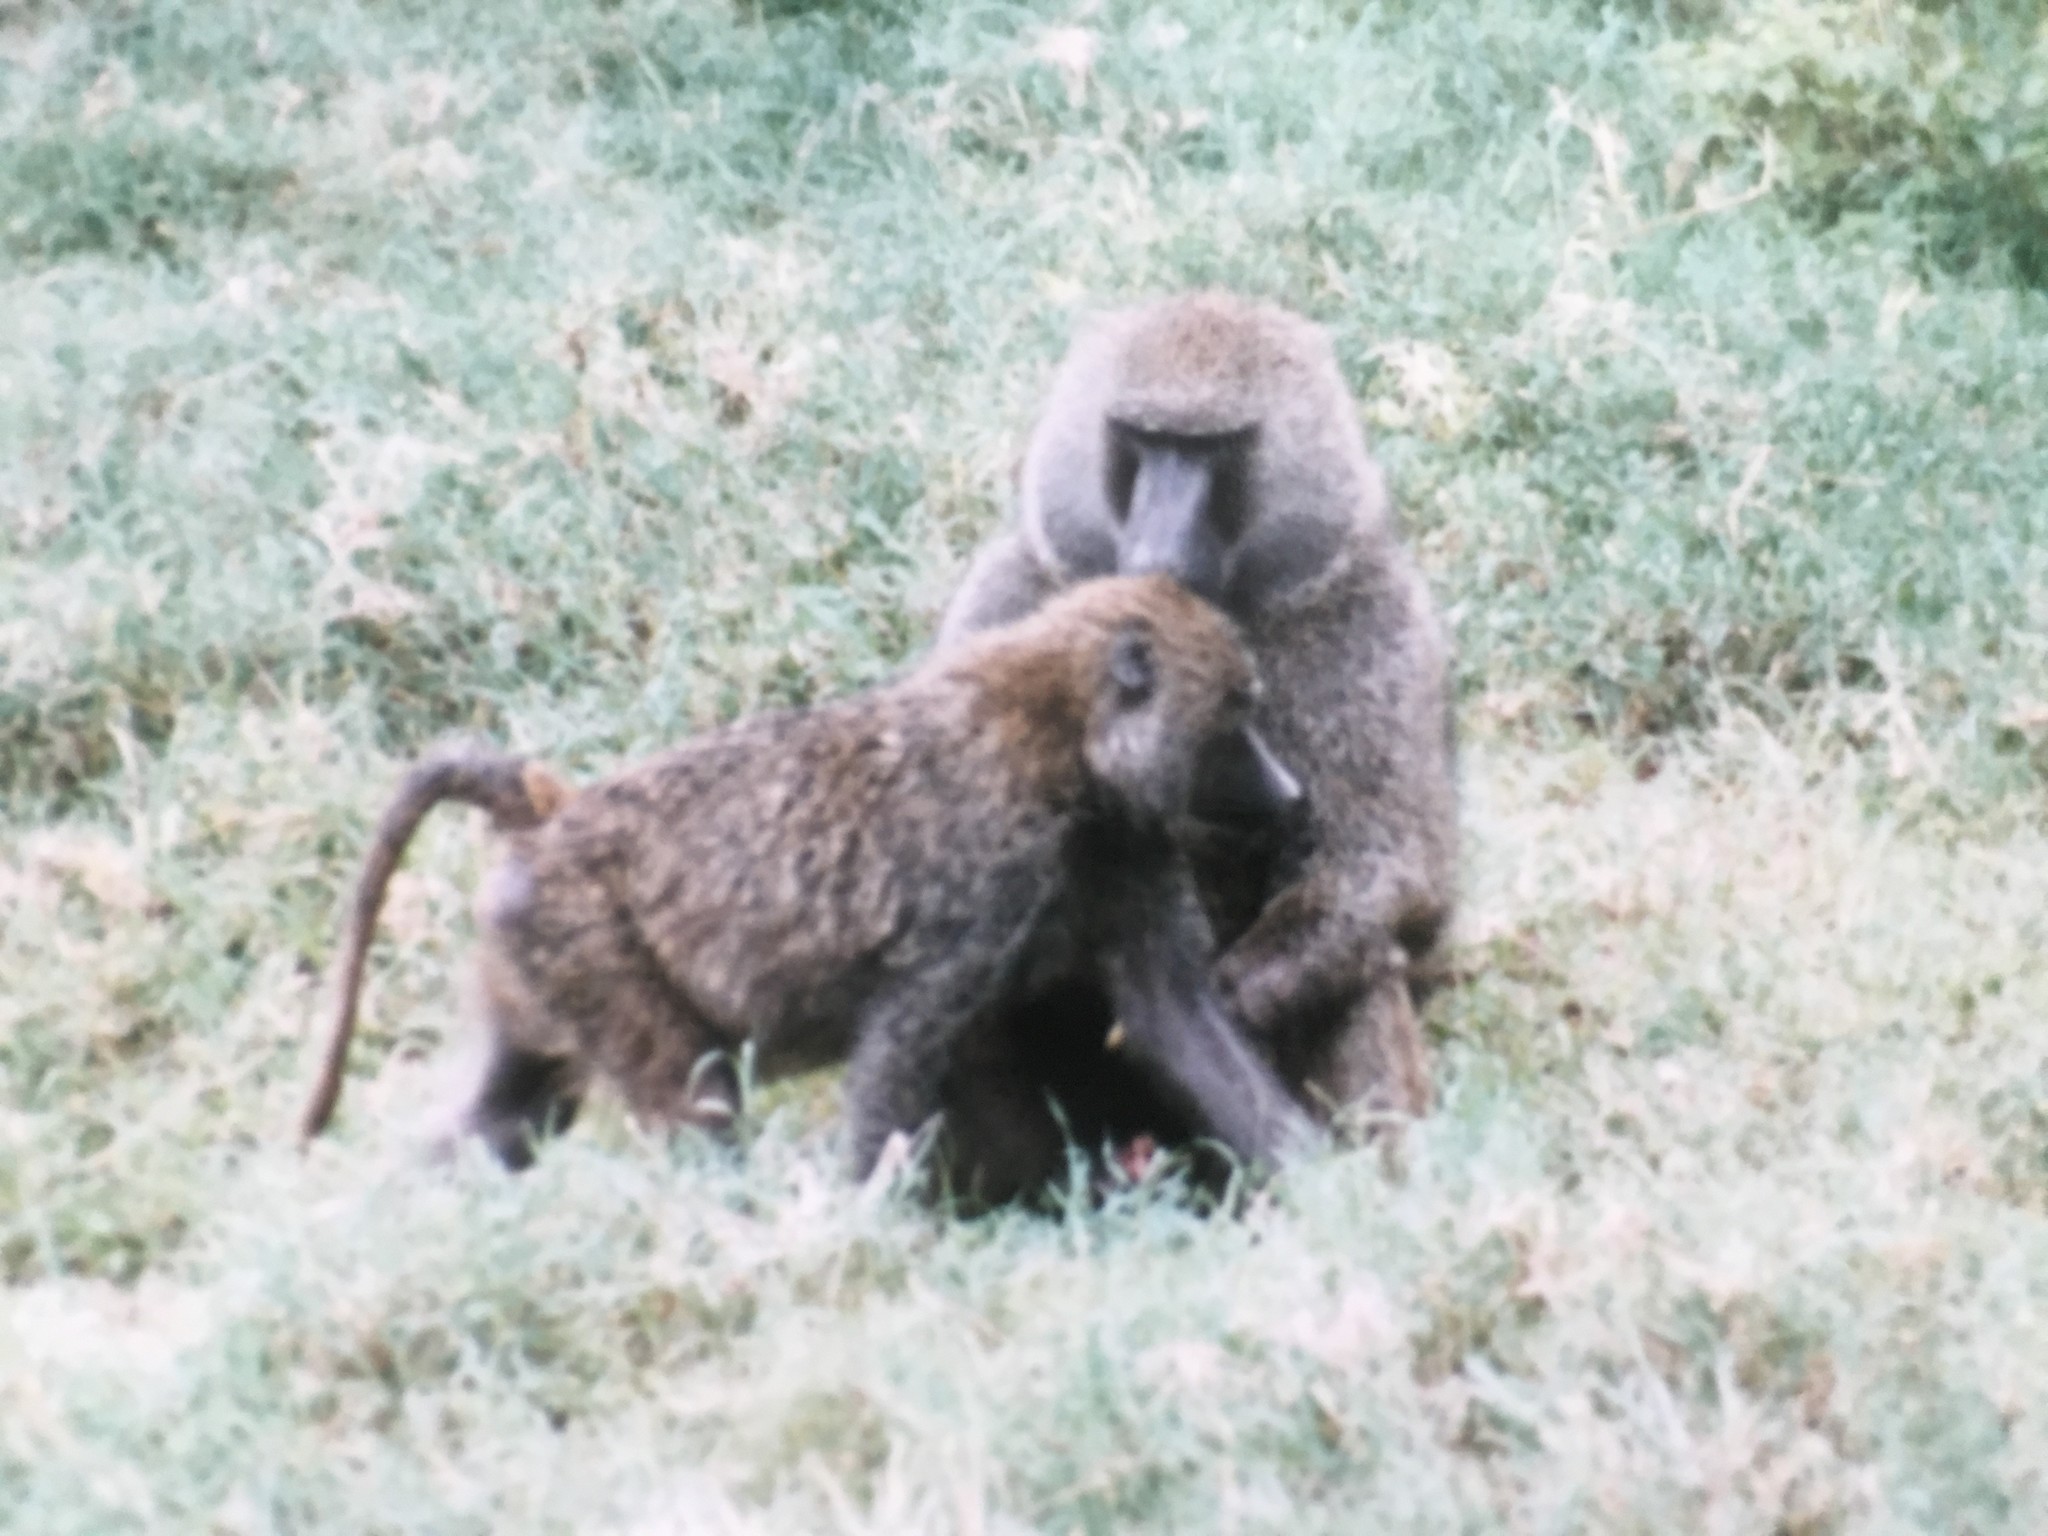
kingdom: Animalia
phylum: Chordata
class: Mammalia
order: Primates
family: Cercopithecidae
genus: Papio
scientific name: Papio anubis
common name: Olive baboon
